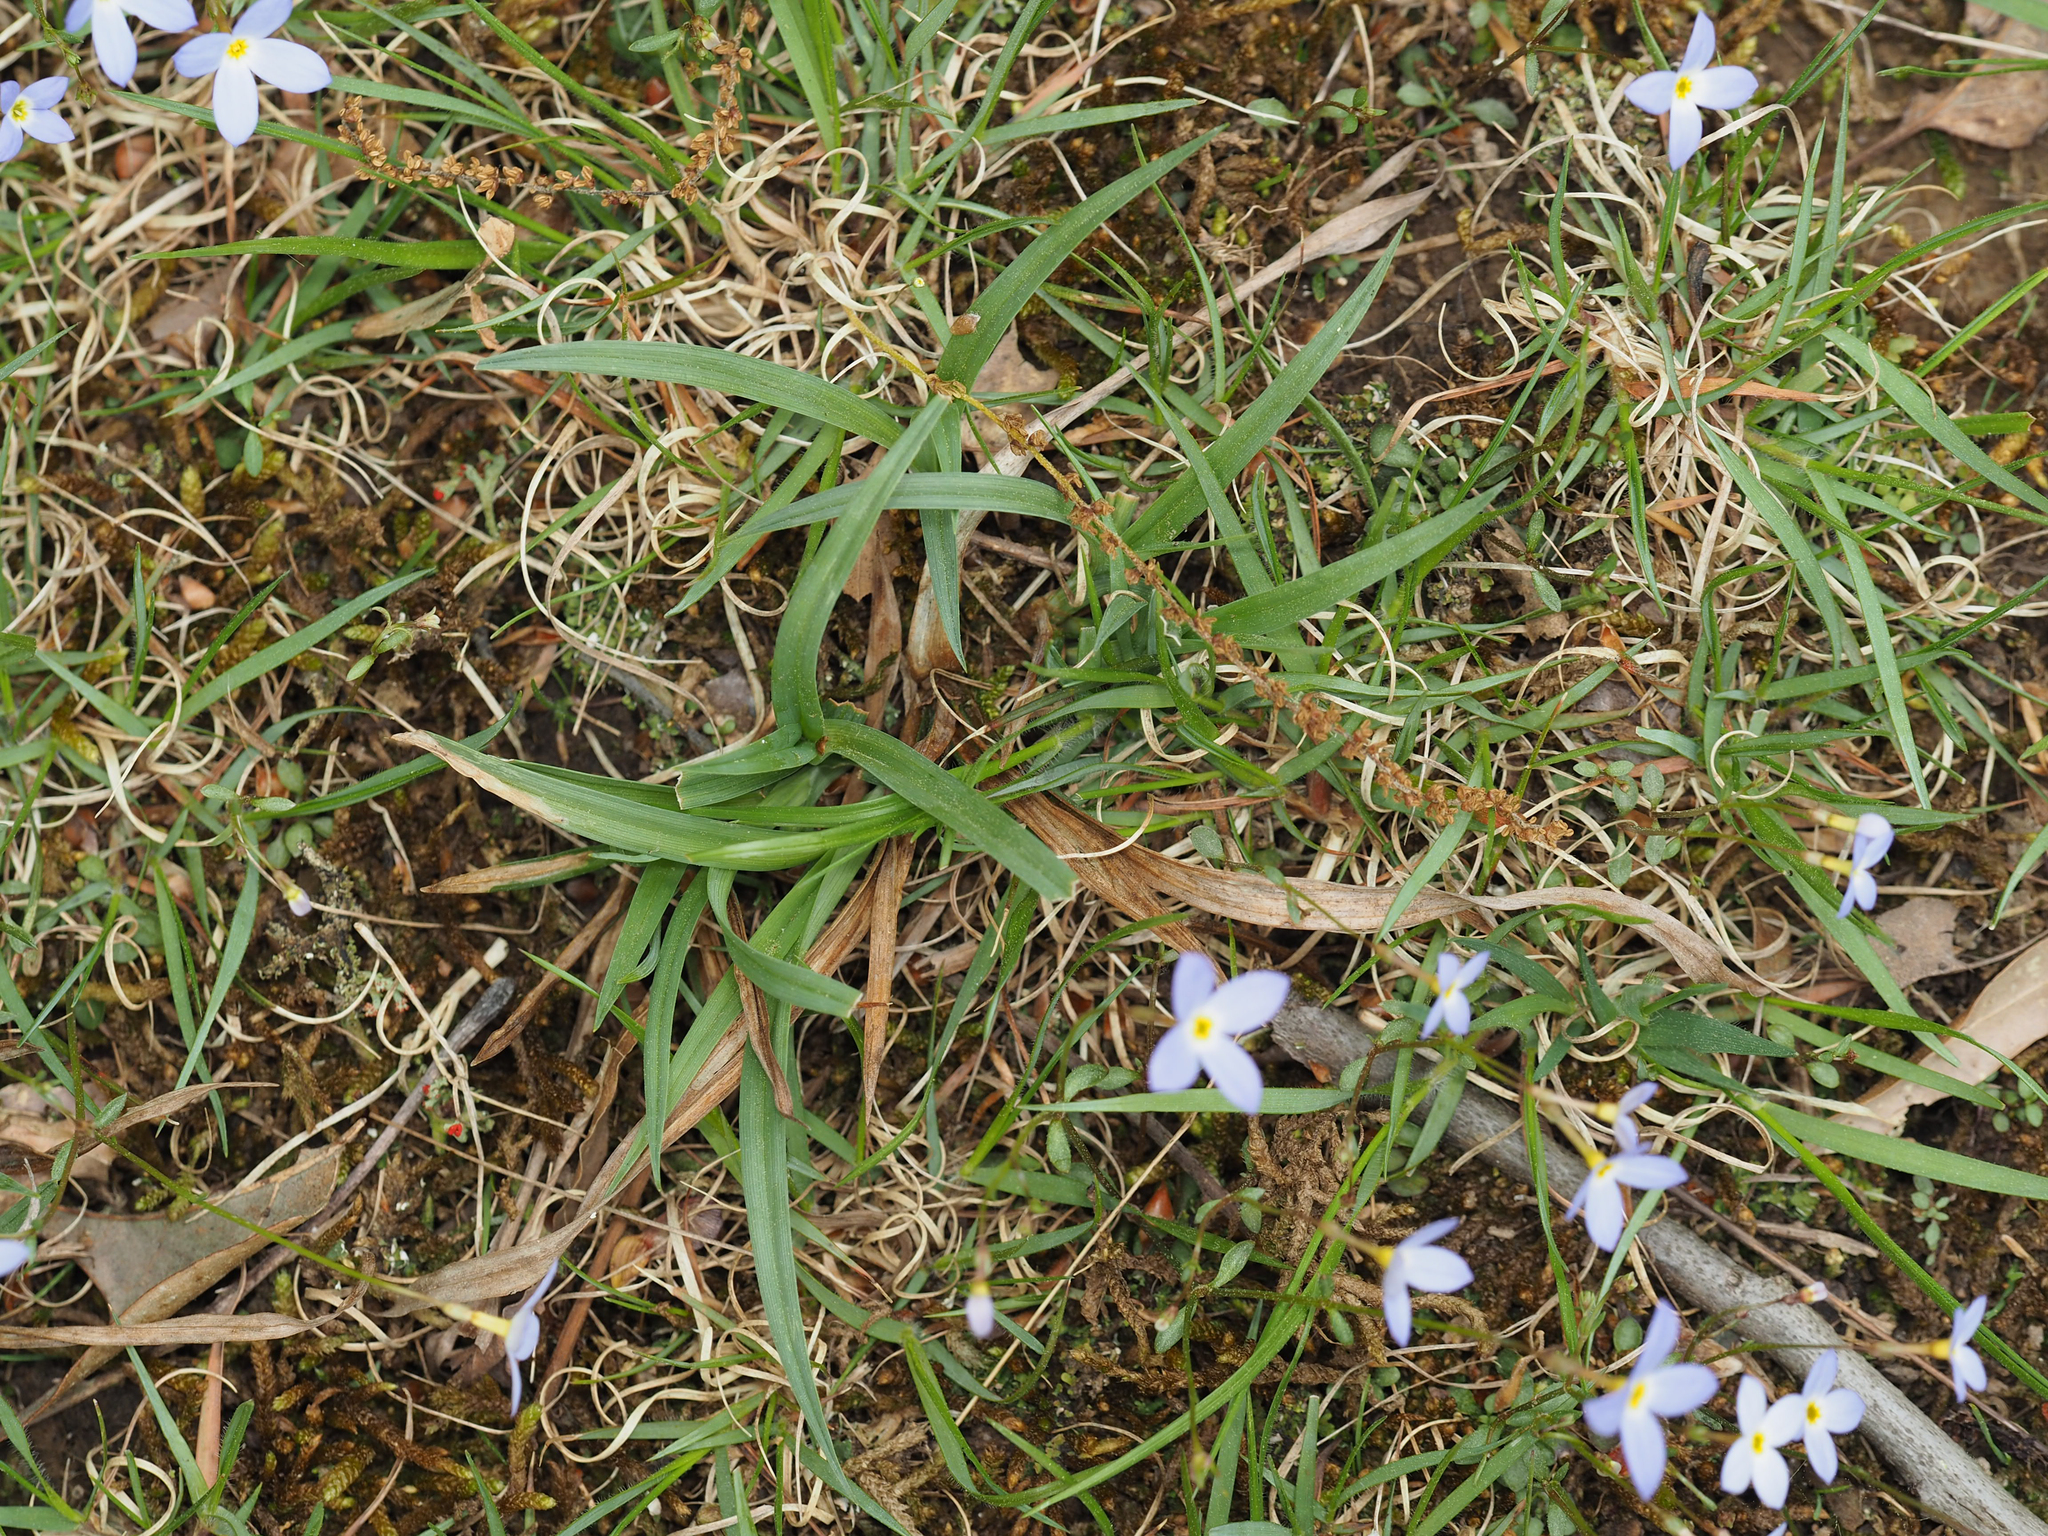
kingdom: Plantae
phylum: Tracheophyta
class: Magnoliopsida
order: Gentianales
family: Rubiaceae
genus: Houstonia
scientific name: Houstonia caerulea
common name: Bluets
